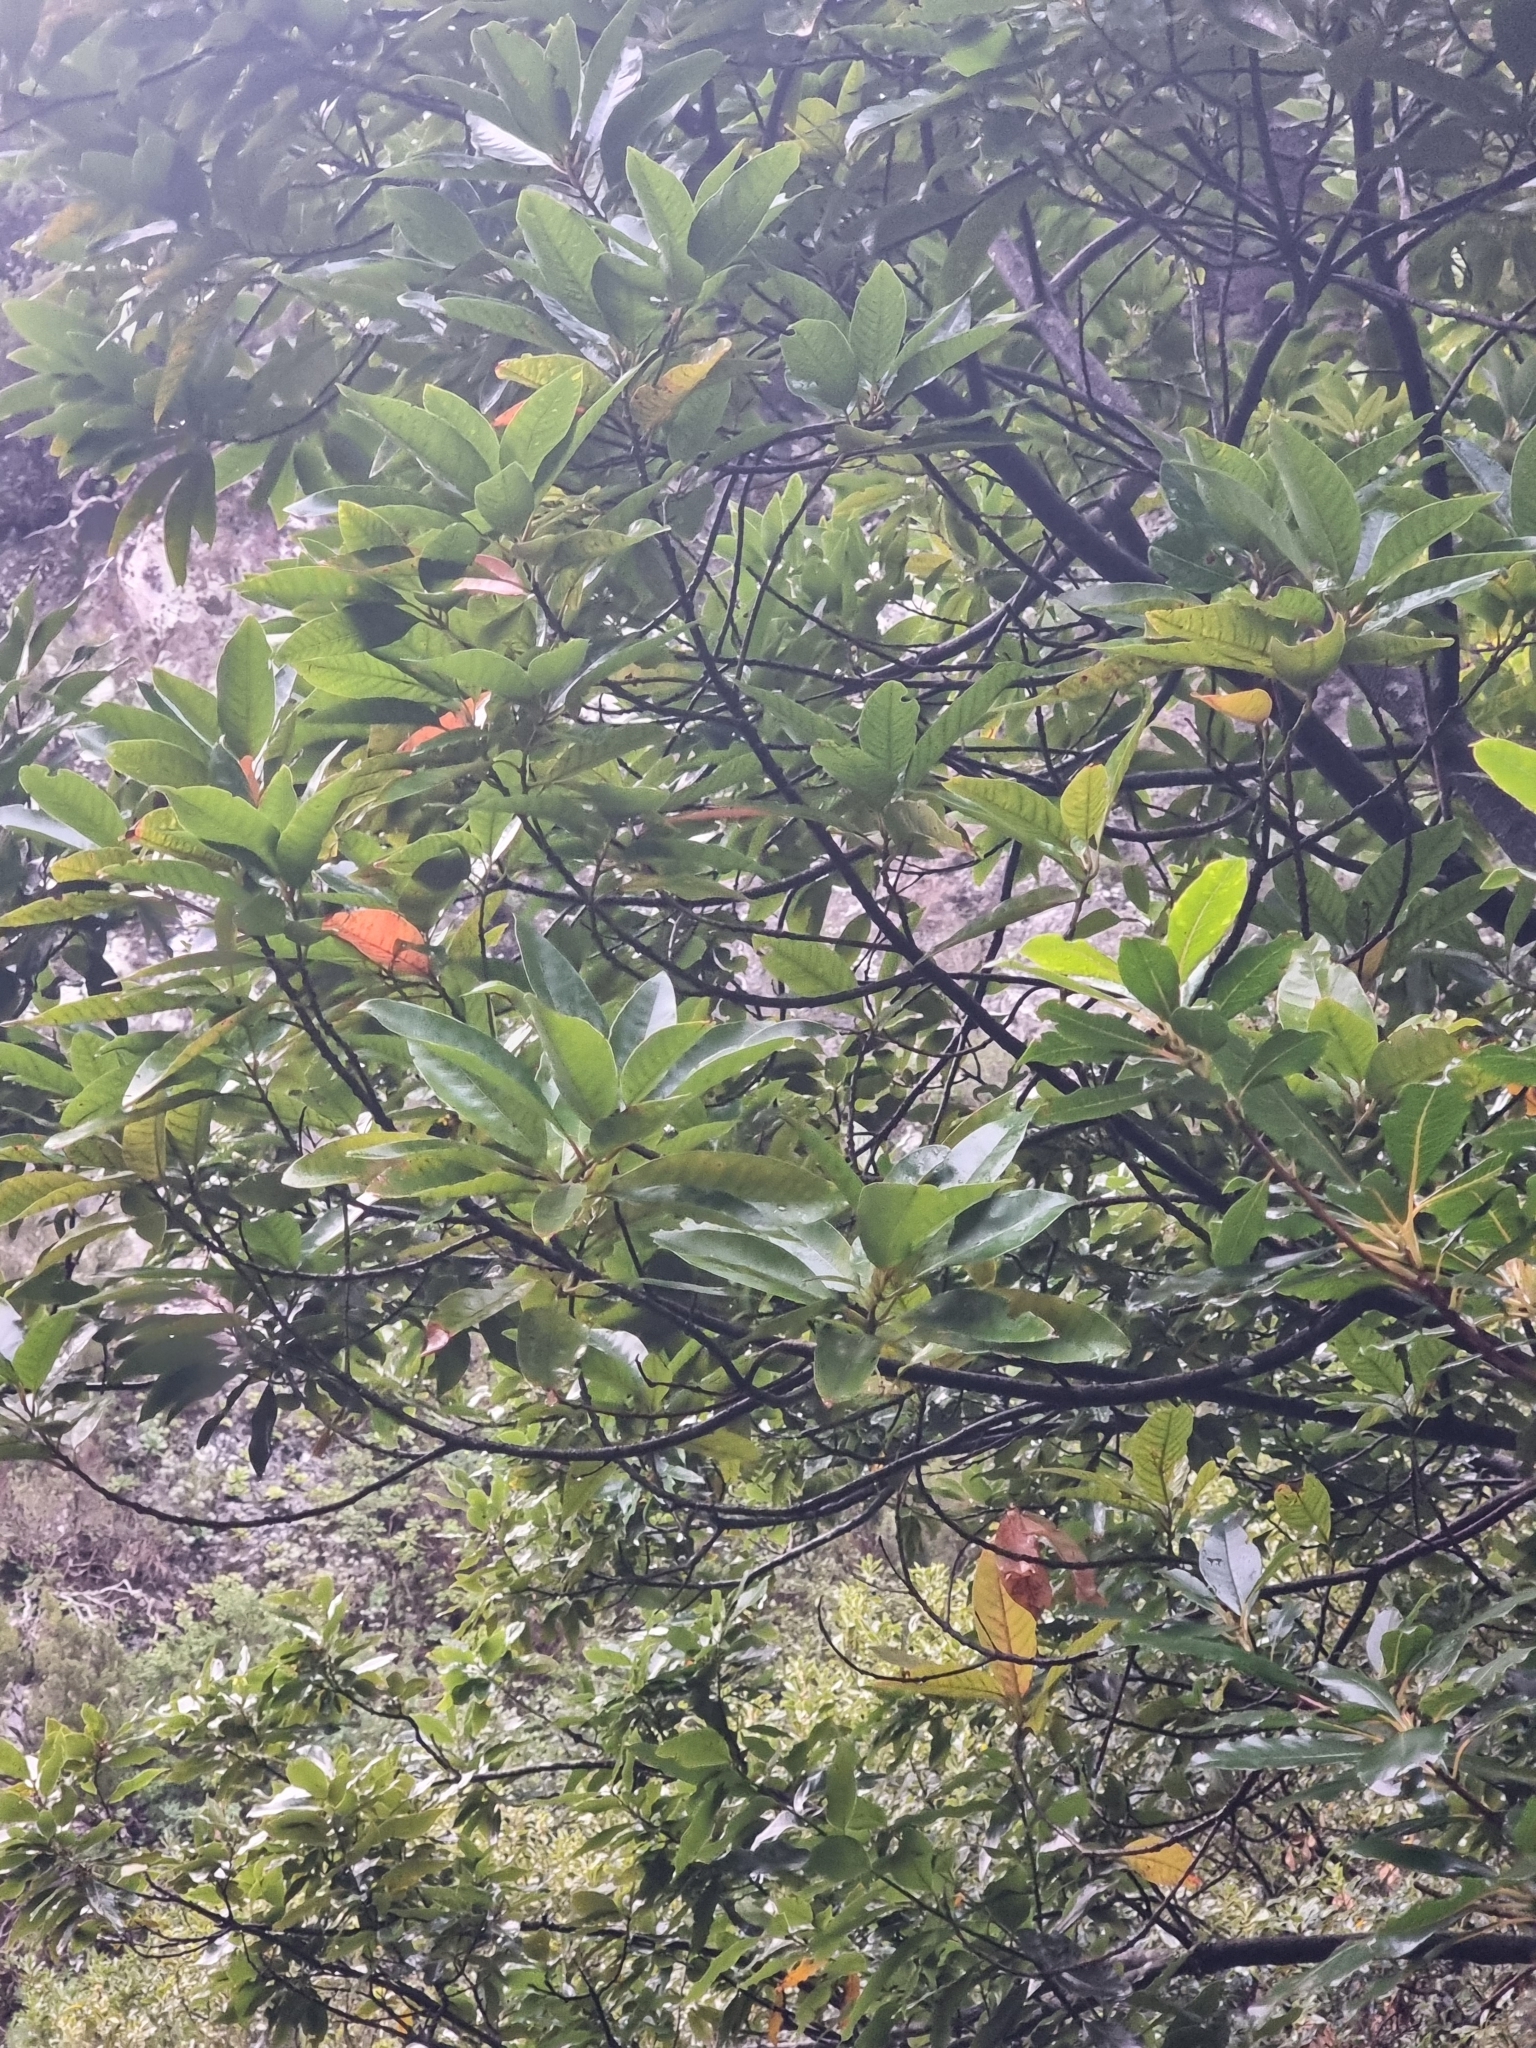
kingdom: Plantae
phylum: Tracheophyta
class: Magnoliopsida
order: Laurales
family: Lauraceae
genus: Persea
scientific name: Persea indica
